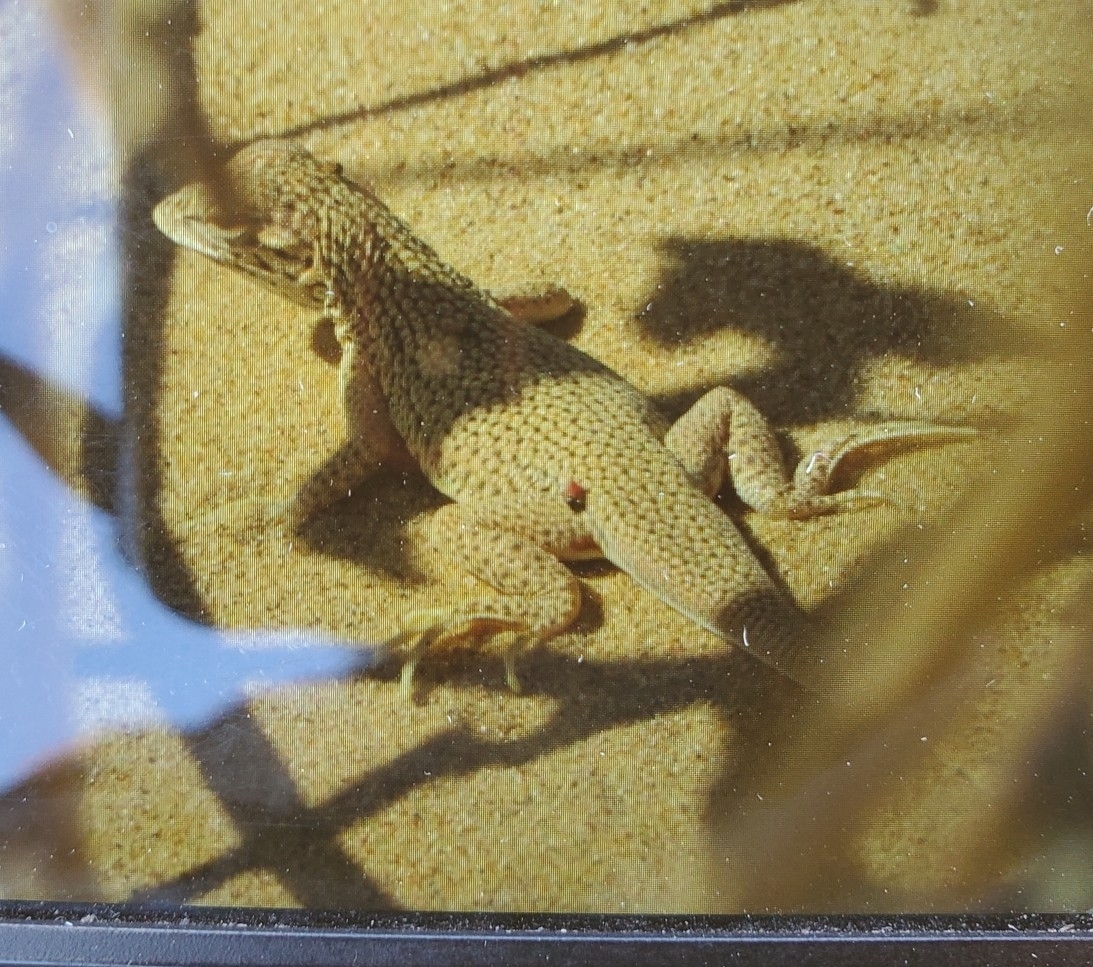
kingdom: Animalia
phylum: Chordata
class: Squamata
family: Phrynosomatidae
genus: Uma
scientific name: Uma notata
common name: Colorado desert fringe-toed lizard
